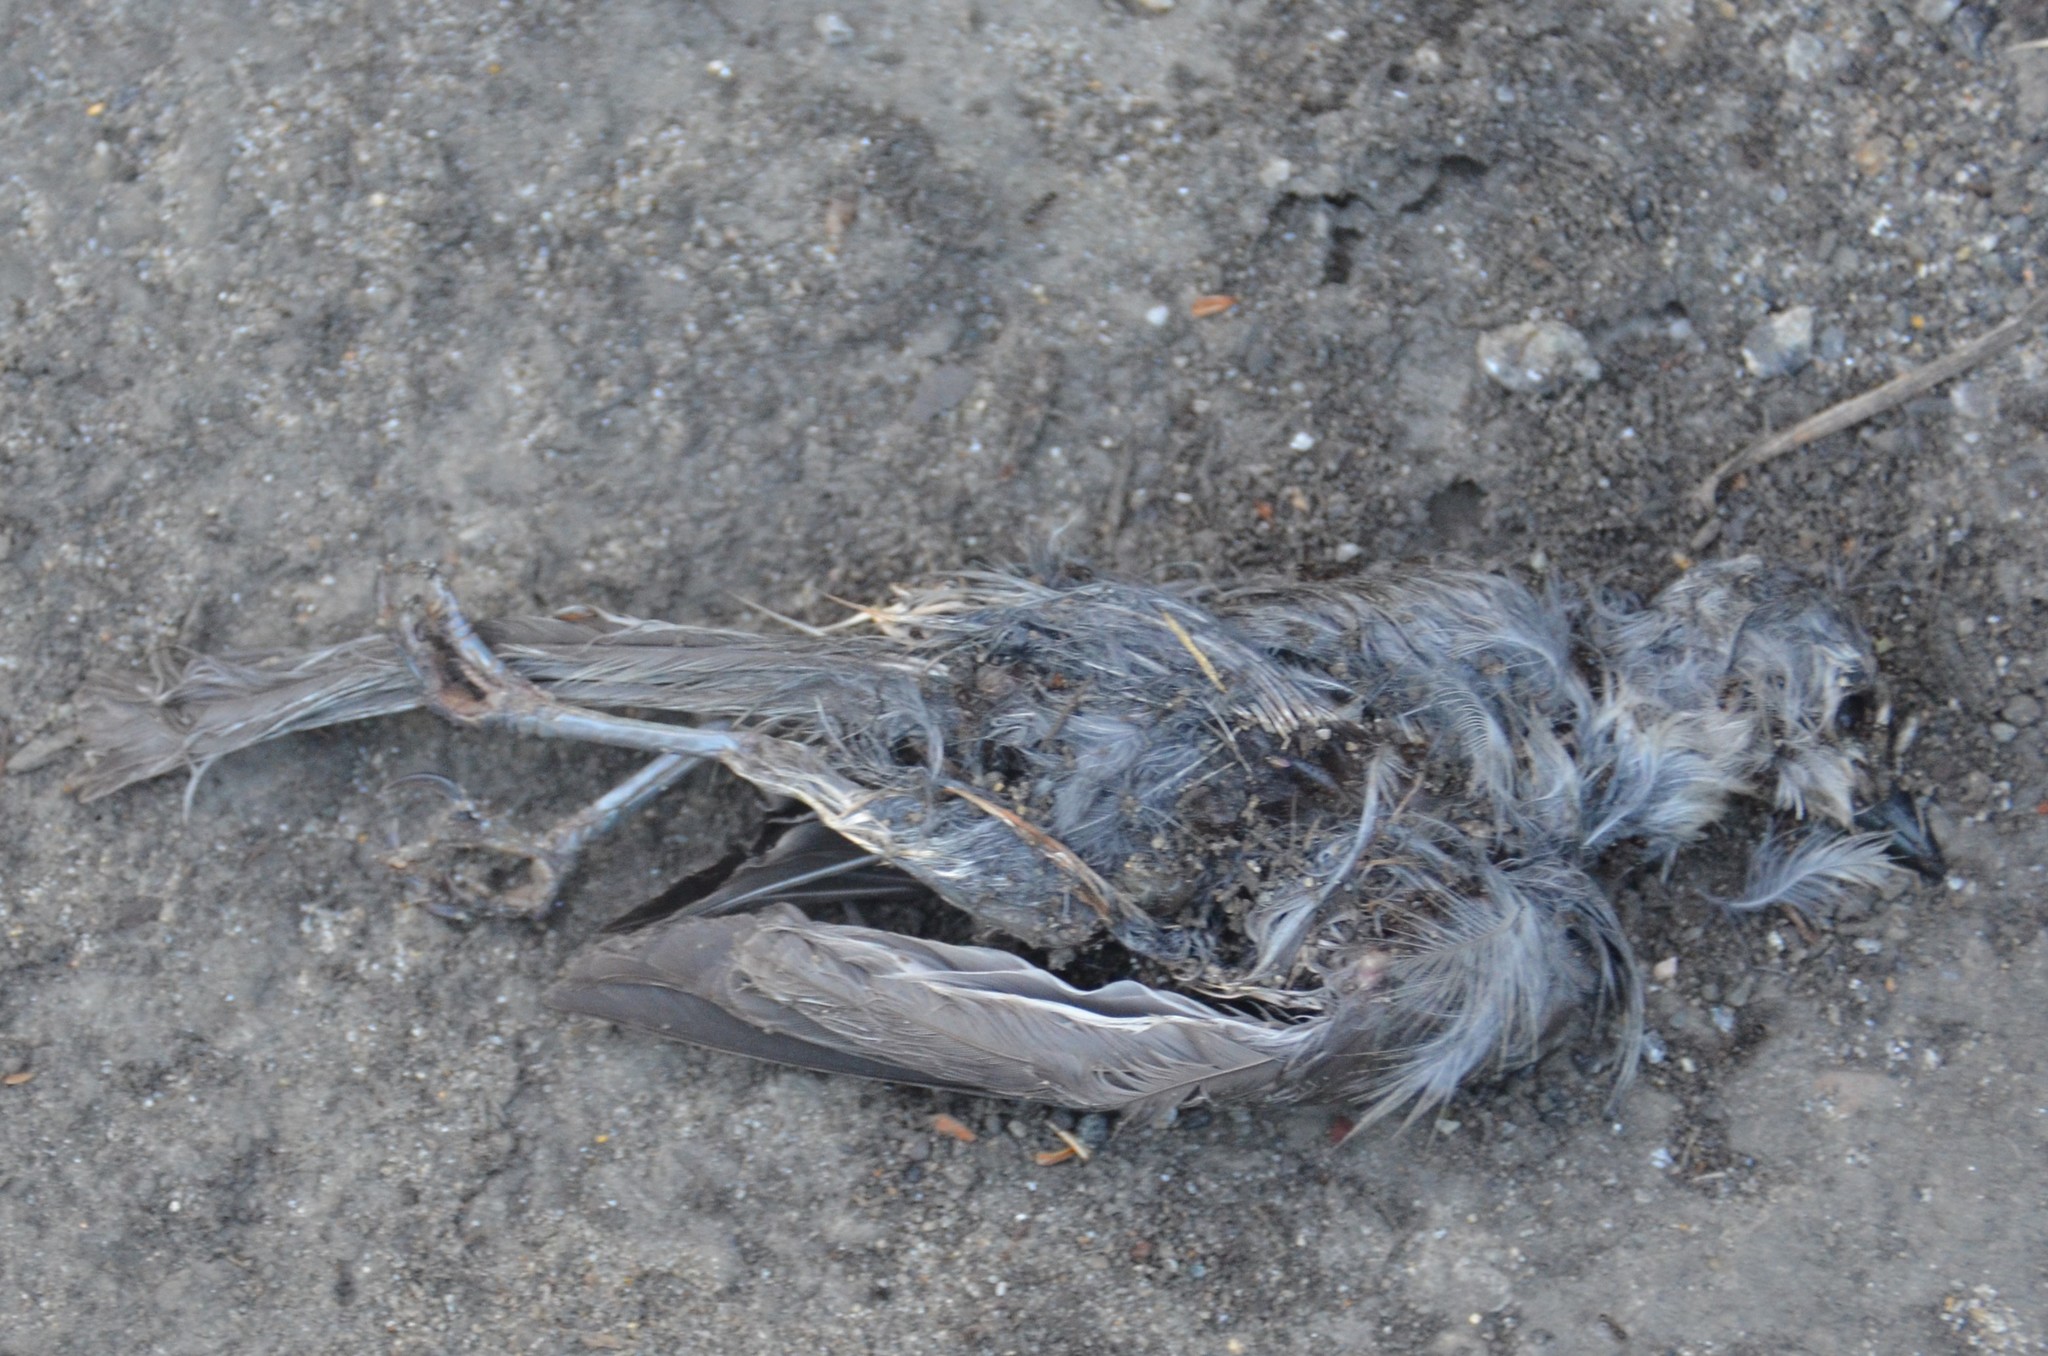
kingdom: Animalia
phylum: Chordata
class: Aves
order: Passeriformes
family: Paridae
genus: Baeolophus
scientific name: Baeolophus bicolor
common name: Tufted titmouse
